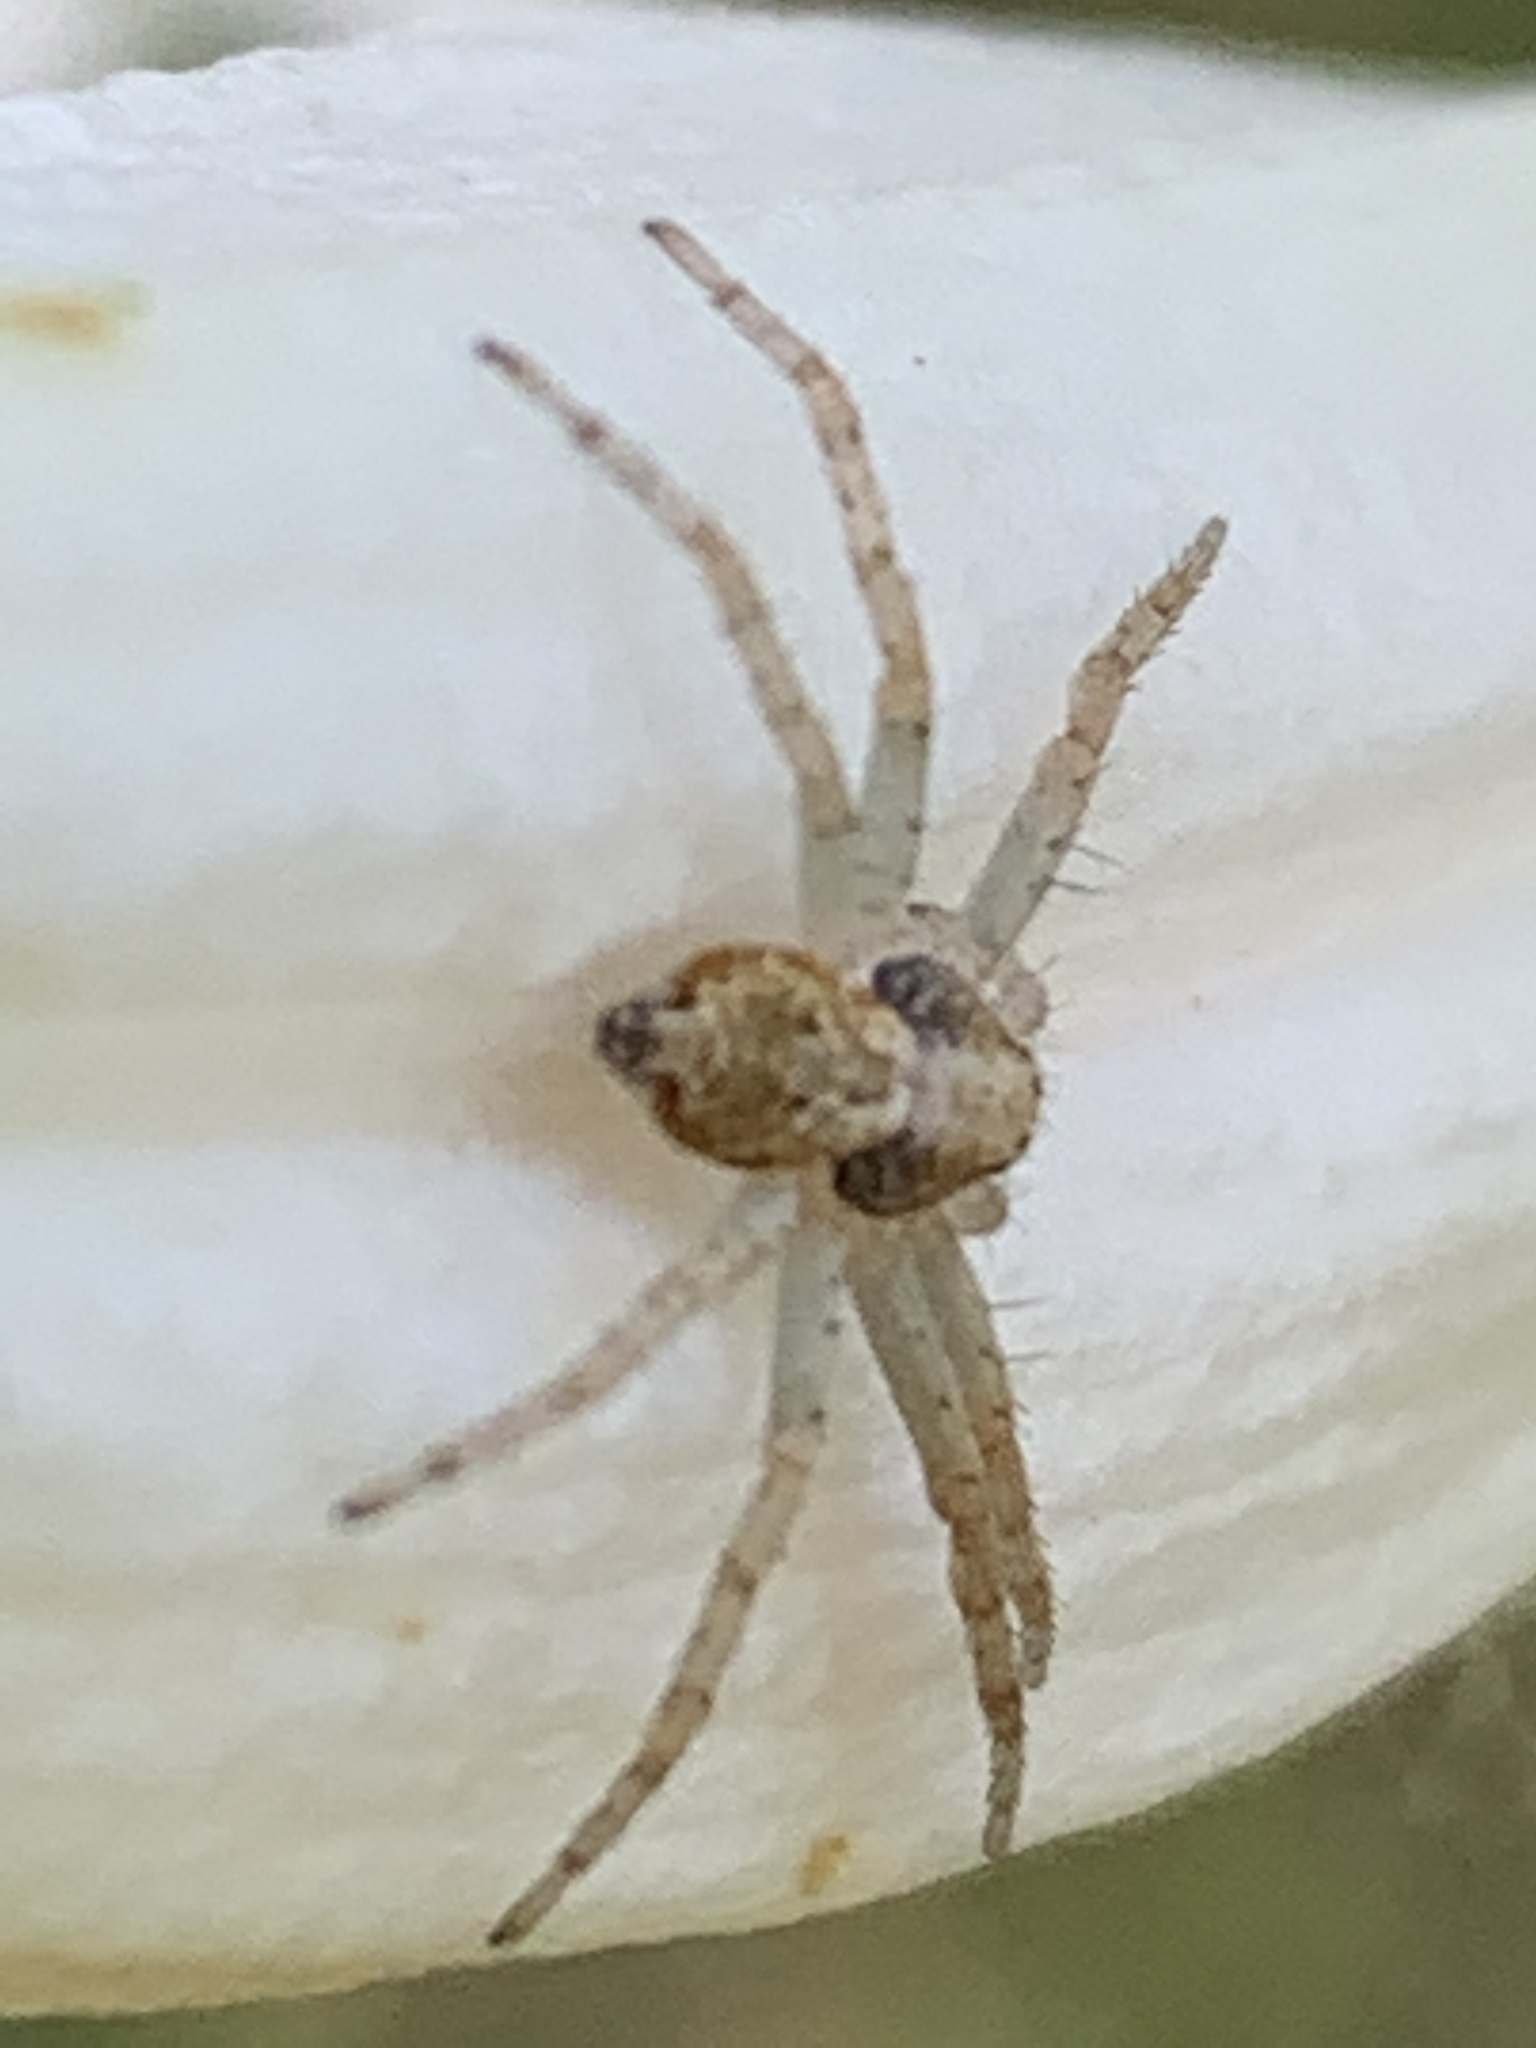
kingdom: Animalia
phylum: Arthropoda
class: Arachnida
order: Araneae
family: Philodromidae
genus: Philodromus
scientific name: Philodromus
